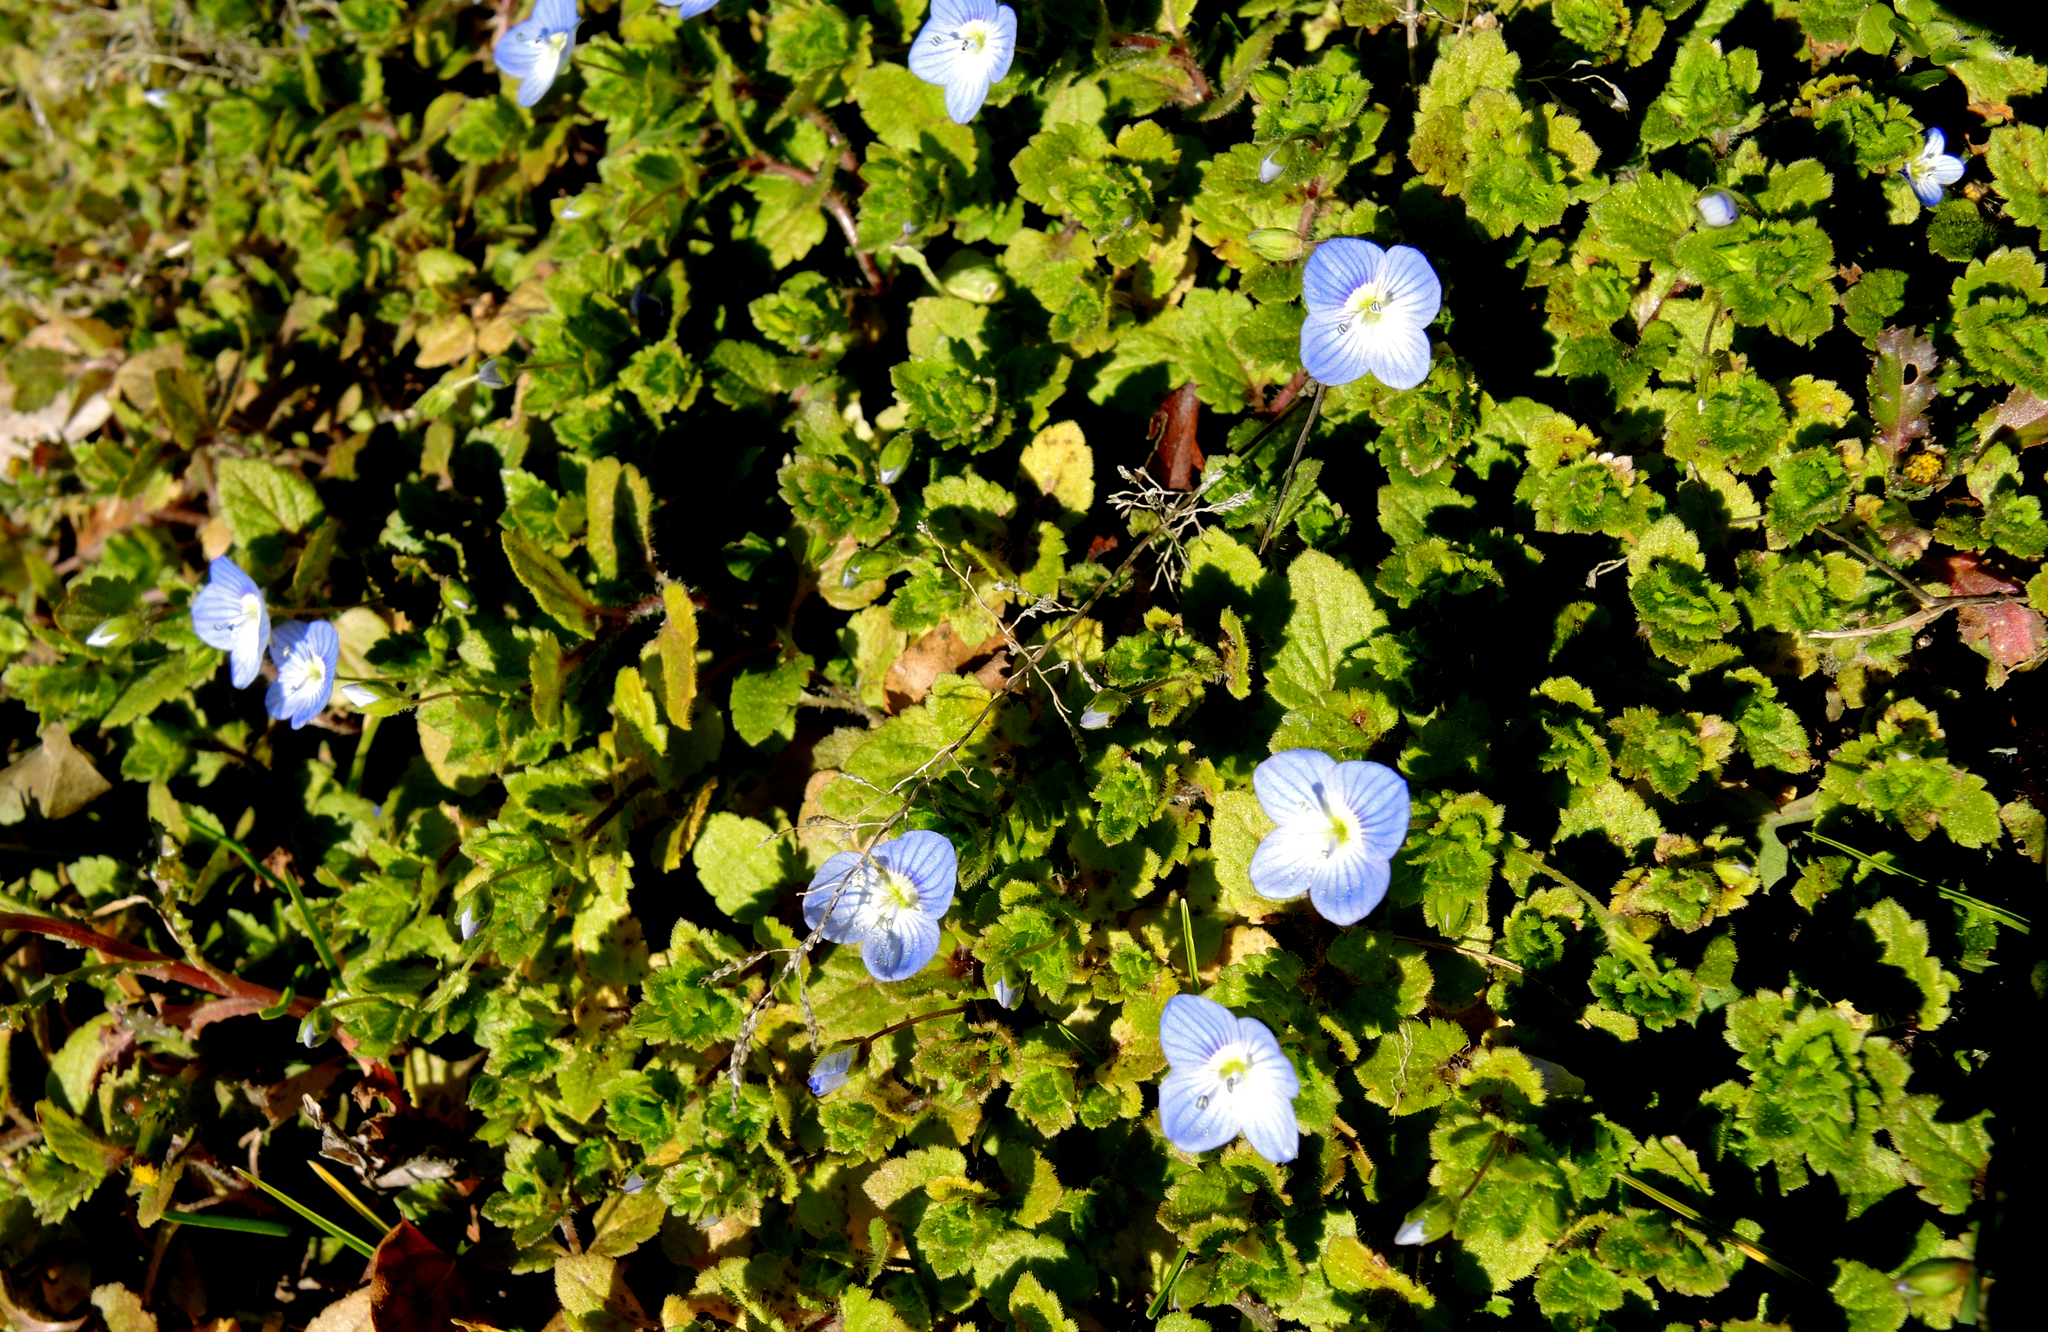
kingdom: Plantae
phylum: Tracheophyta
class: Magnoliopsida
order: Lamiales
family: Plantaginaceae
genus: Veronica
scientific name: Veronica persica
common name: Common field-speedwell
